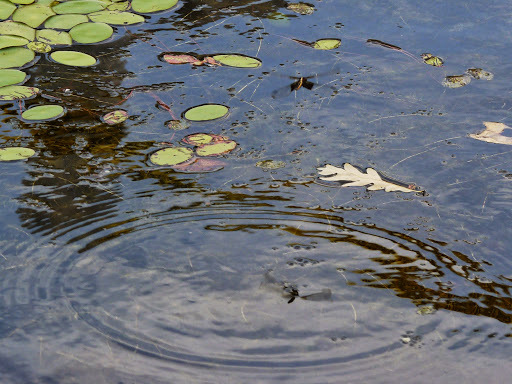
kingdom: Animalia
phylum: Arthropoda
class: Insecta
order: Odonata
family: Libellulidae
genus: Libellula
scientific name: Libellula luctuosa
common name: Widow skimmer
